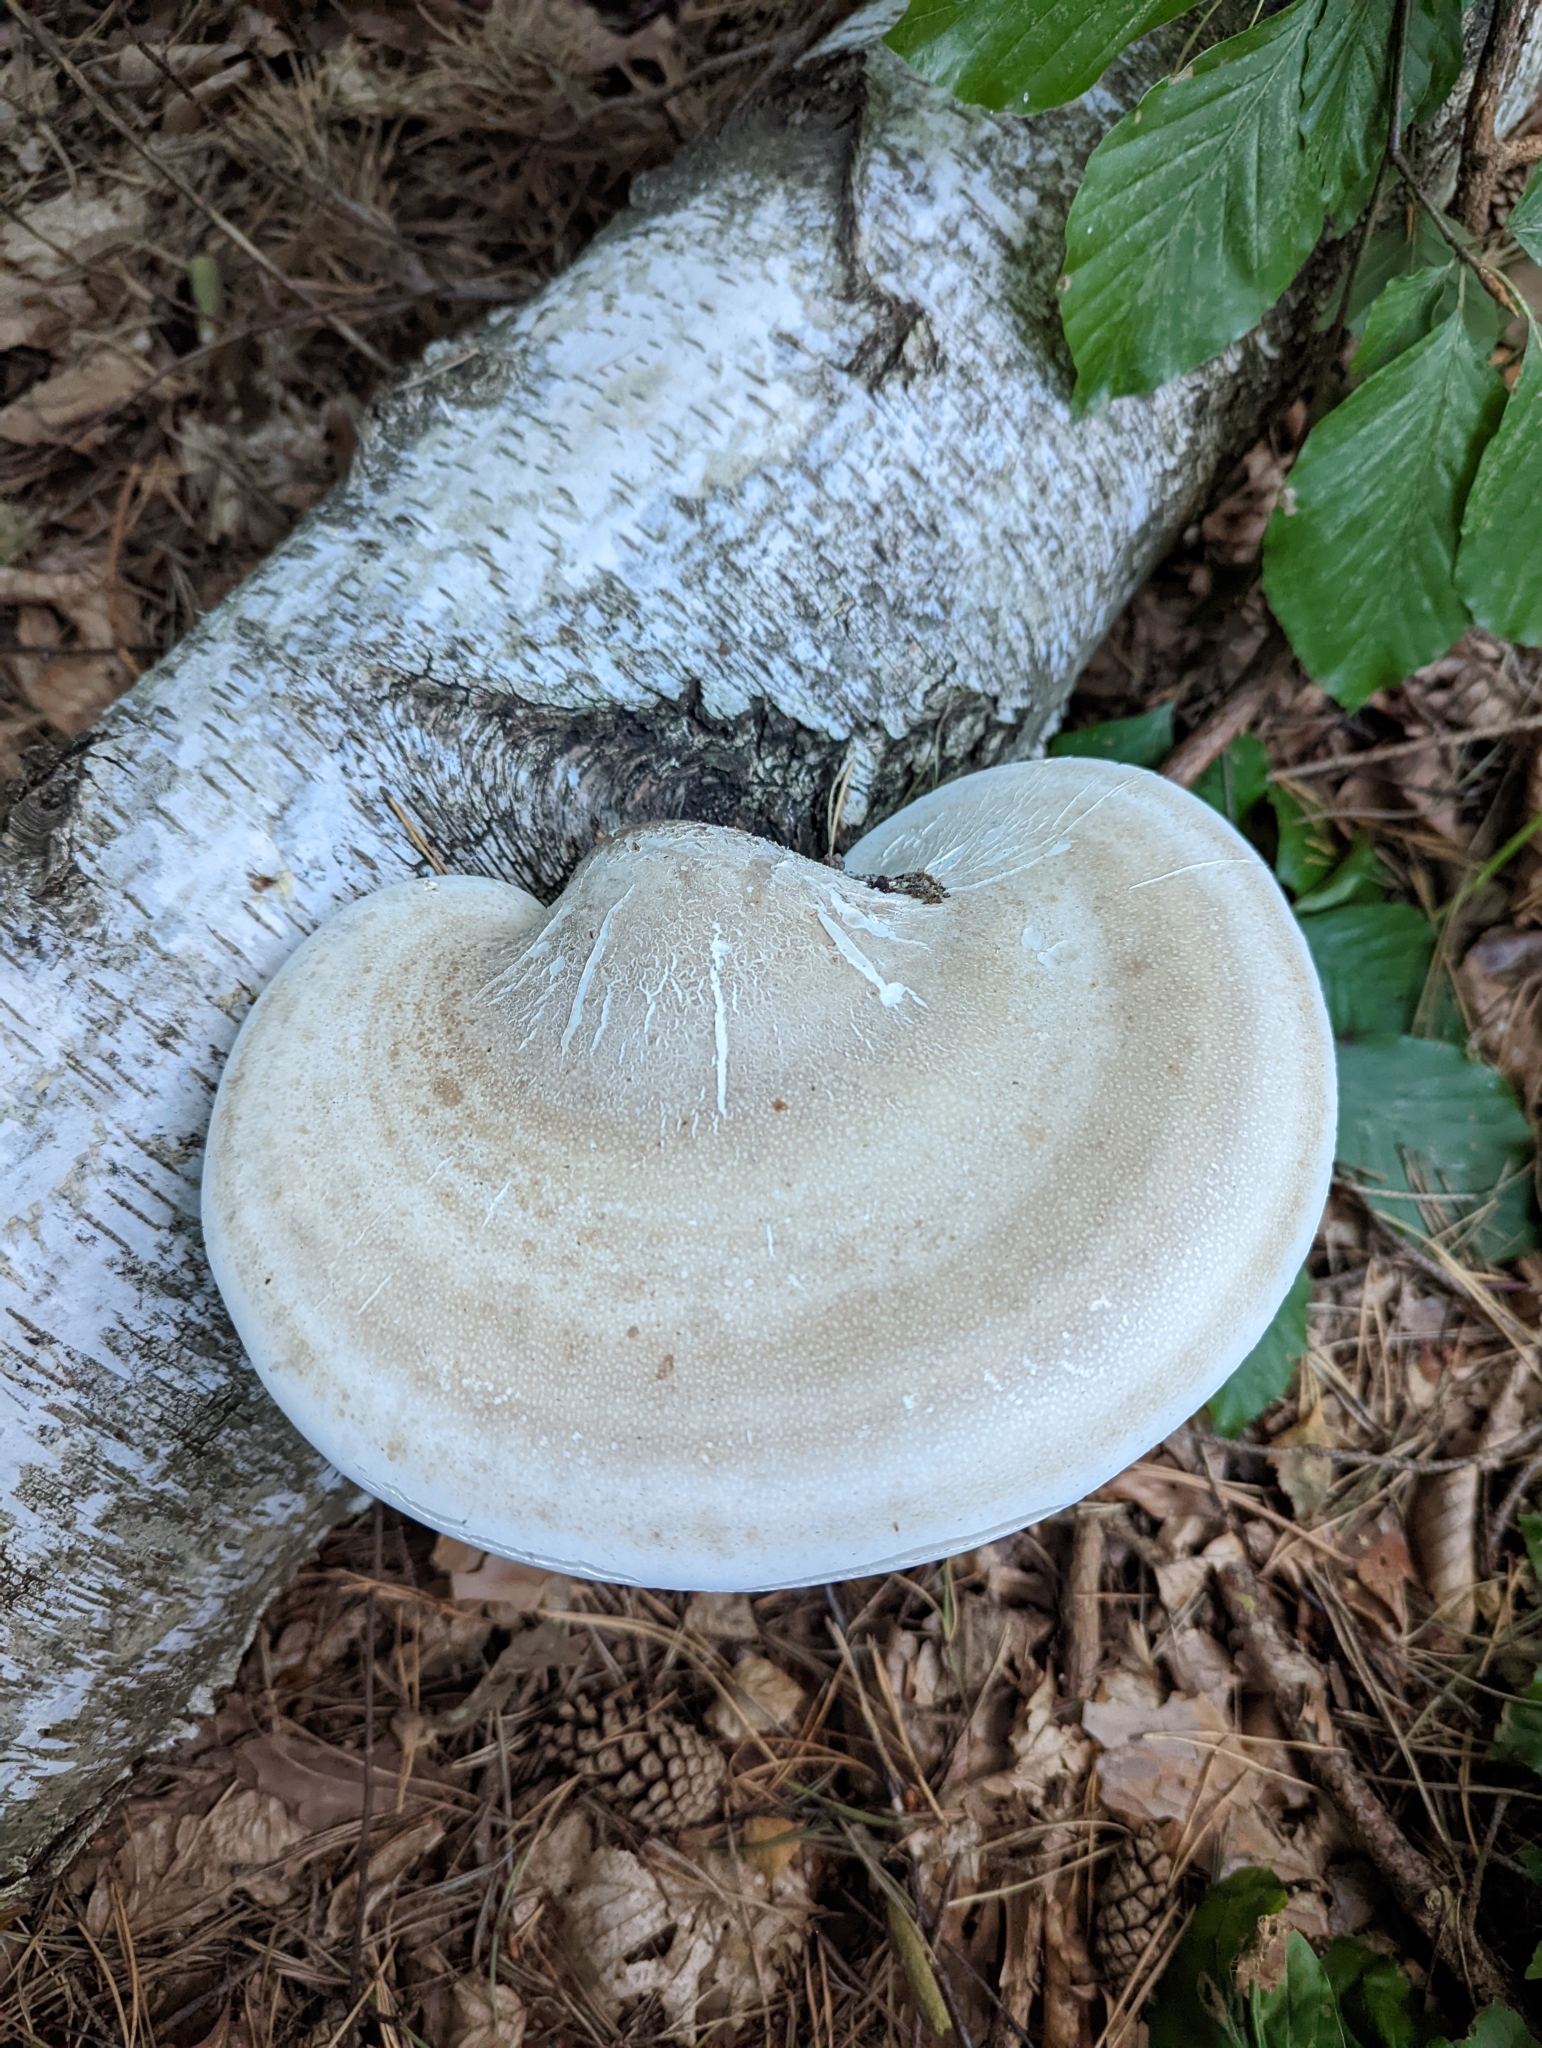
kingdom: Fungi
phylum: Basidiomycota
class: Agaricomycetes
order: Polyporales
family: Fomitopsidaceae
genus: Fomitopsis
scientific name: Fomitopsis betulina
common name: Birch polypore
